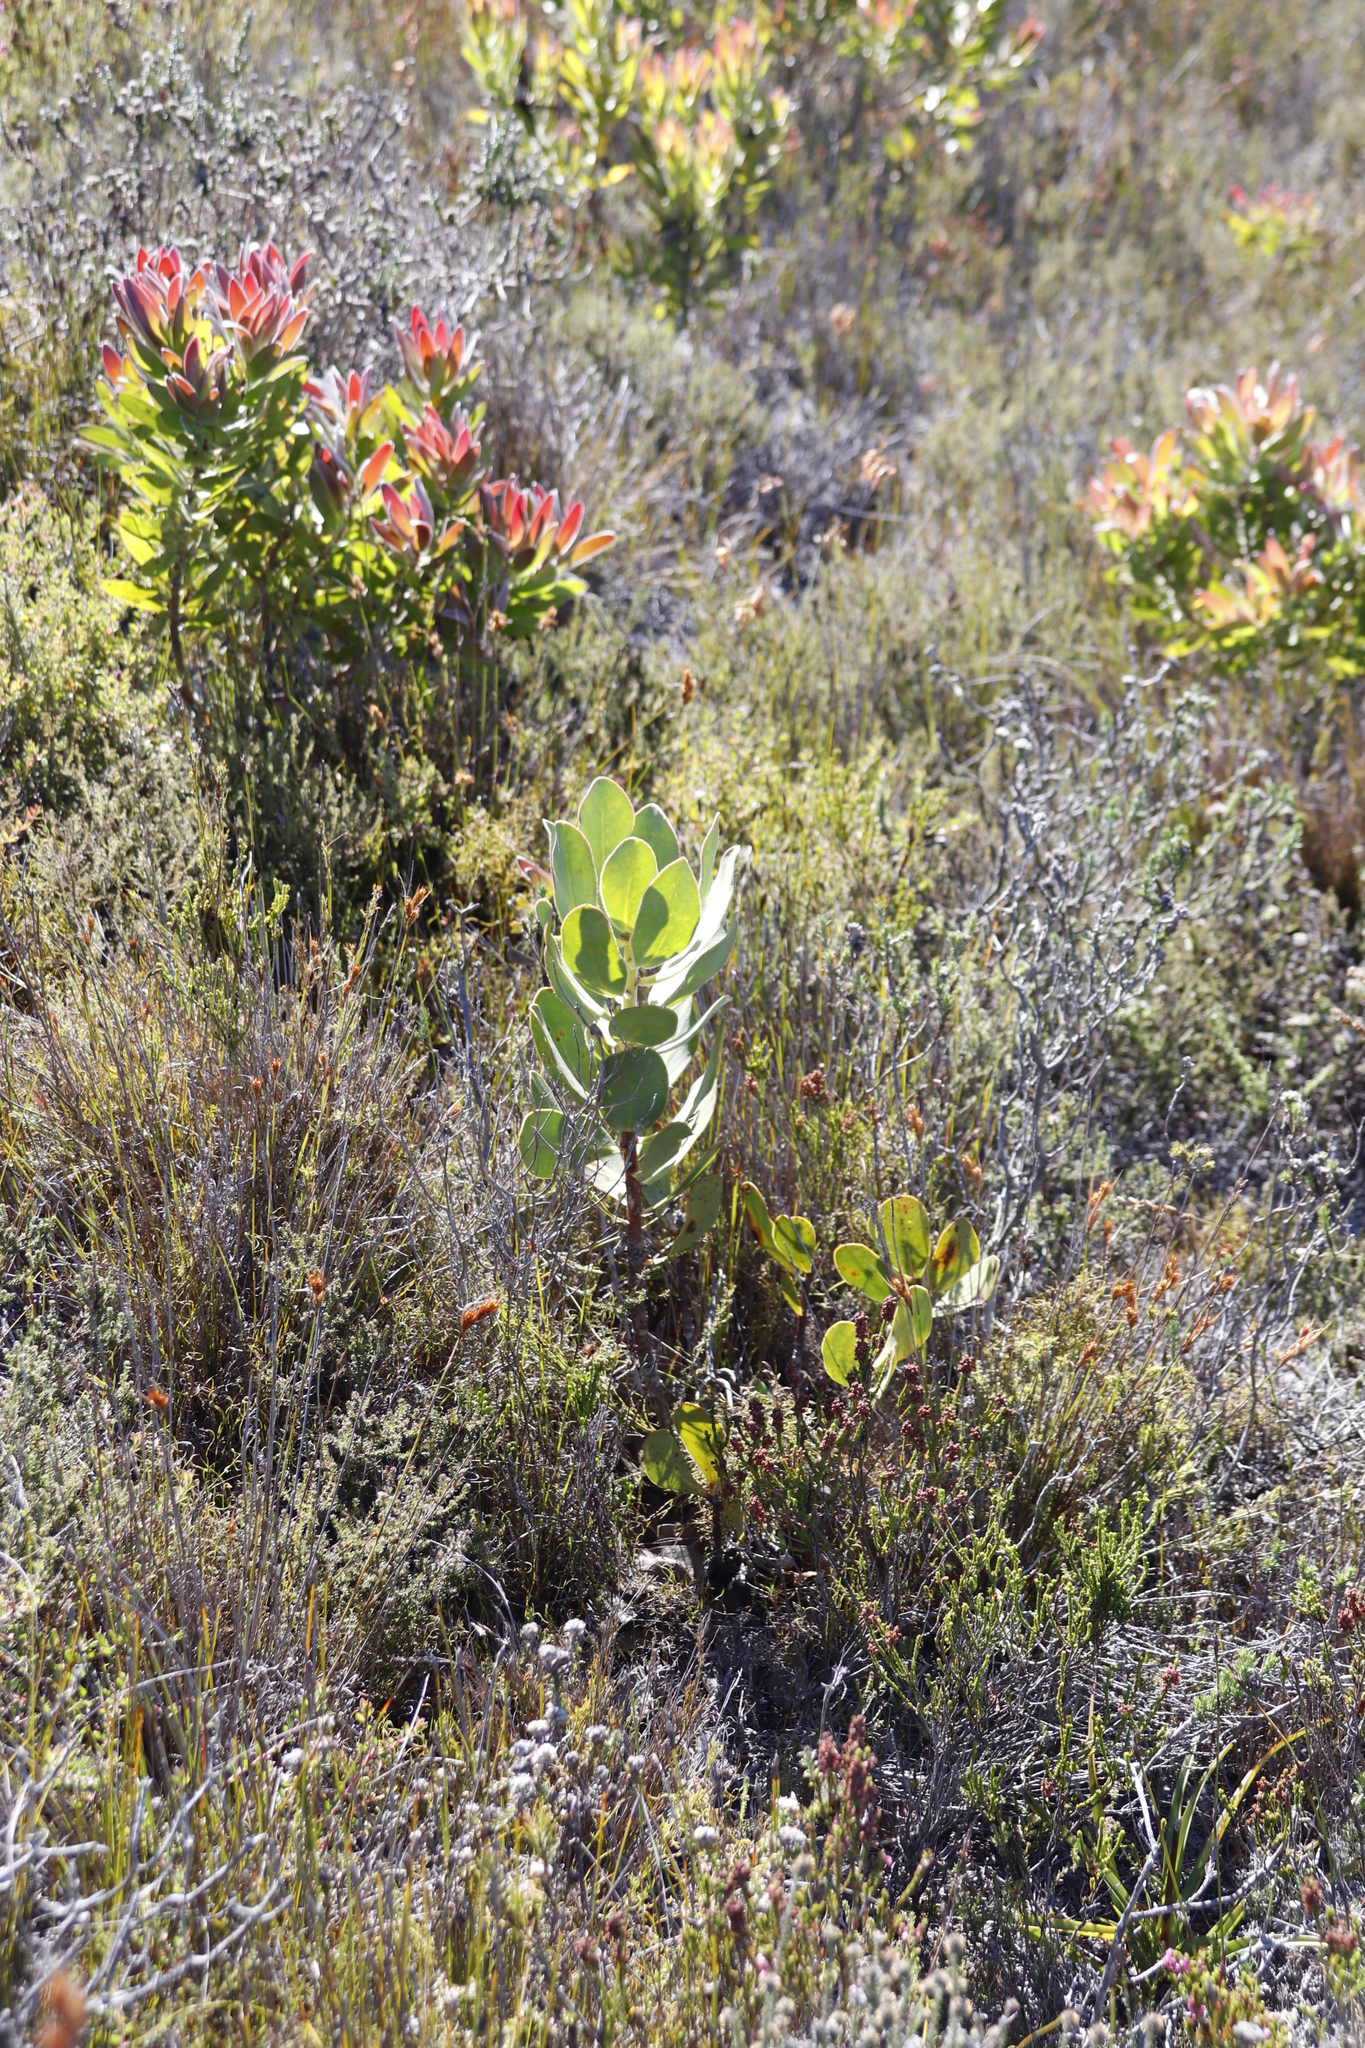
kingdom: Plantae
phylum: Tracheophyta
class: Magnoliopsida
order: Proteales
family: Proteaceae
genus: Protea
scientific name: Protea speciosa
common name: Brown-beard sugarbush
